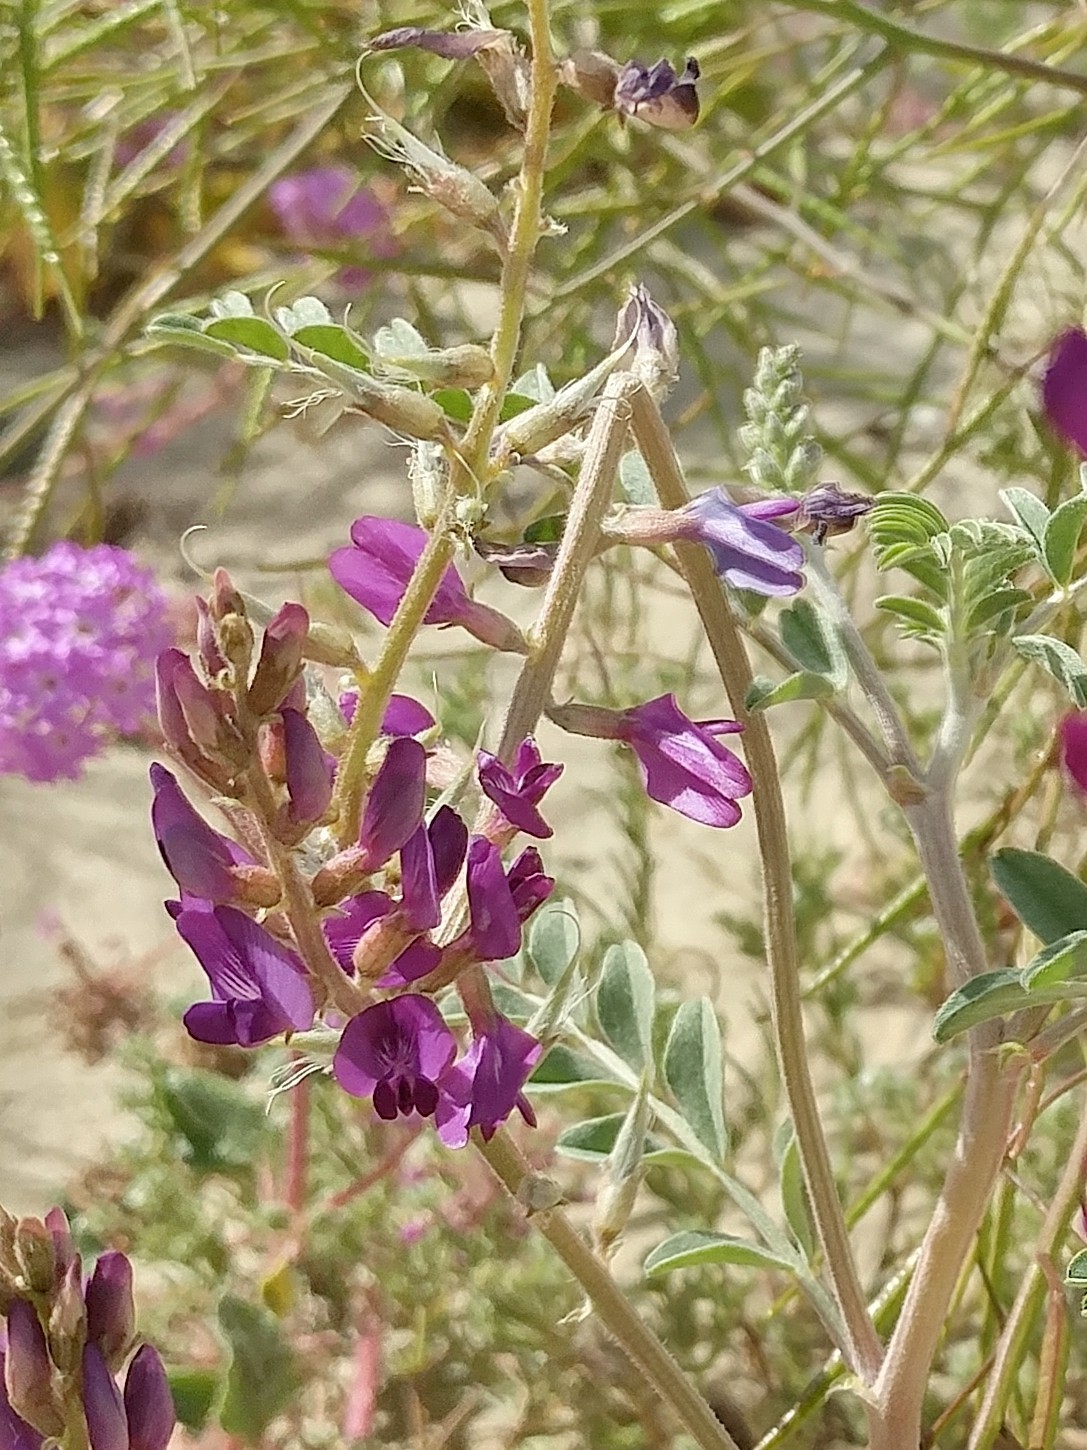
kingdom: Plantae
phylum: Tracheophyta
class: Magnoliopsida
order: Fabales
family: Fabaceae
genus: Astragalus
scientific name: Astragalus lentiginosus
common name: Freckled milkvetch
